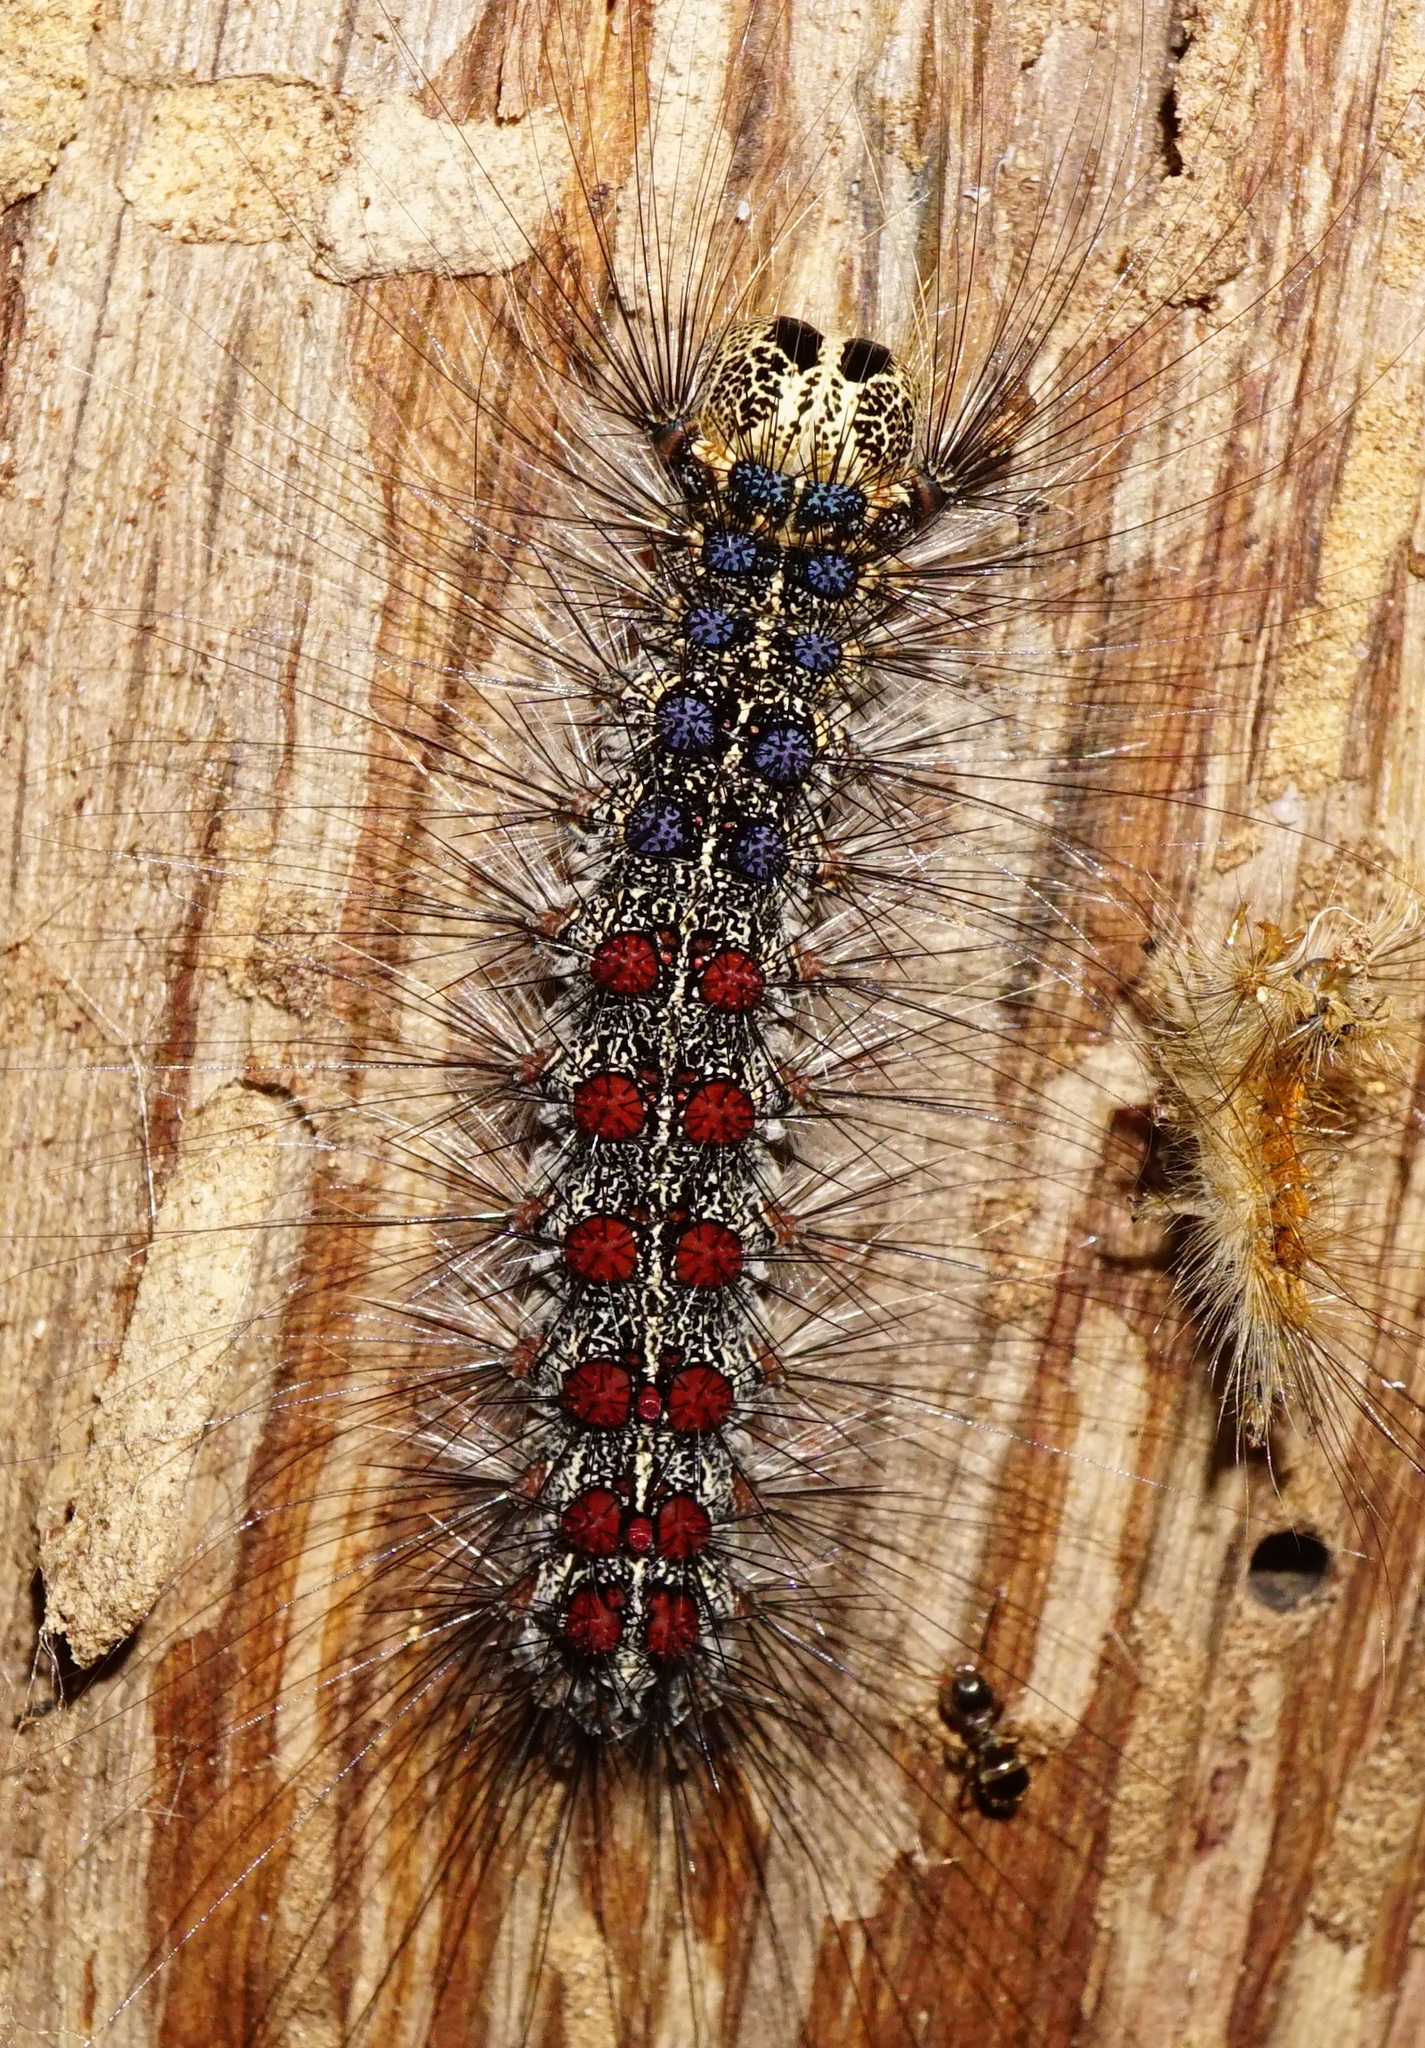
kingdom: Animalia
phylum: Arthropoda
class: Insecta
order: Lepidoptera
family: Erebidae
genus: Lymantria
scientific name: Lymantria dispar
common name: Gypsy moth
